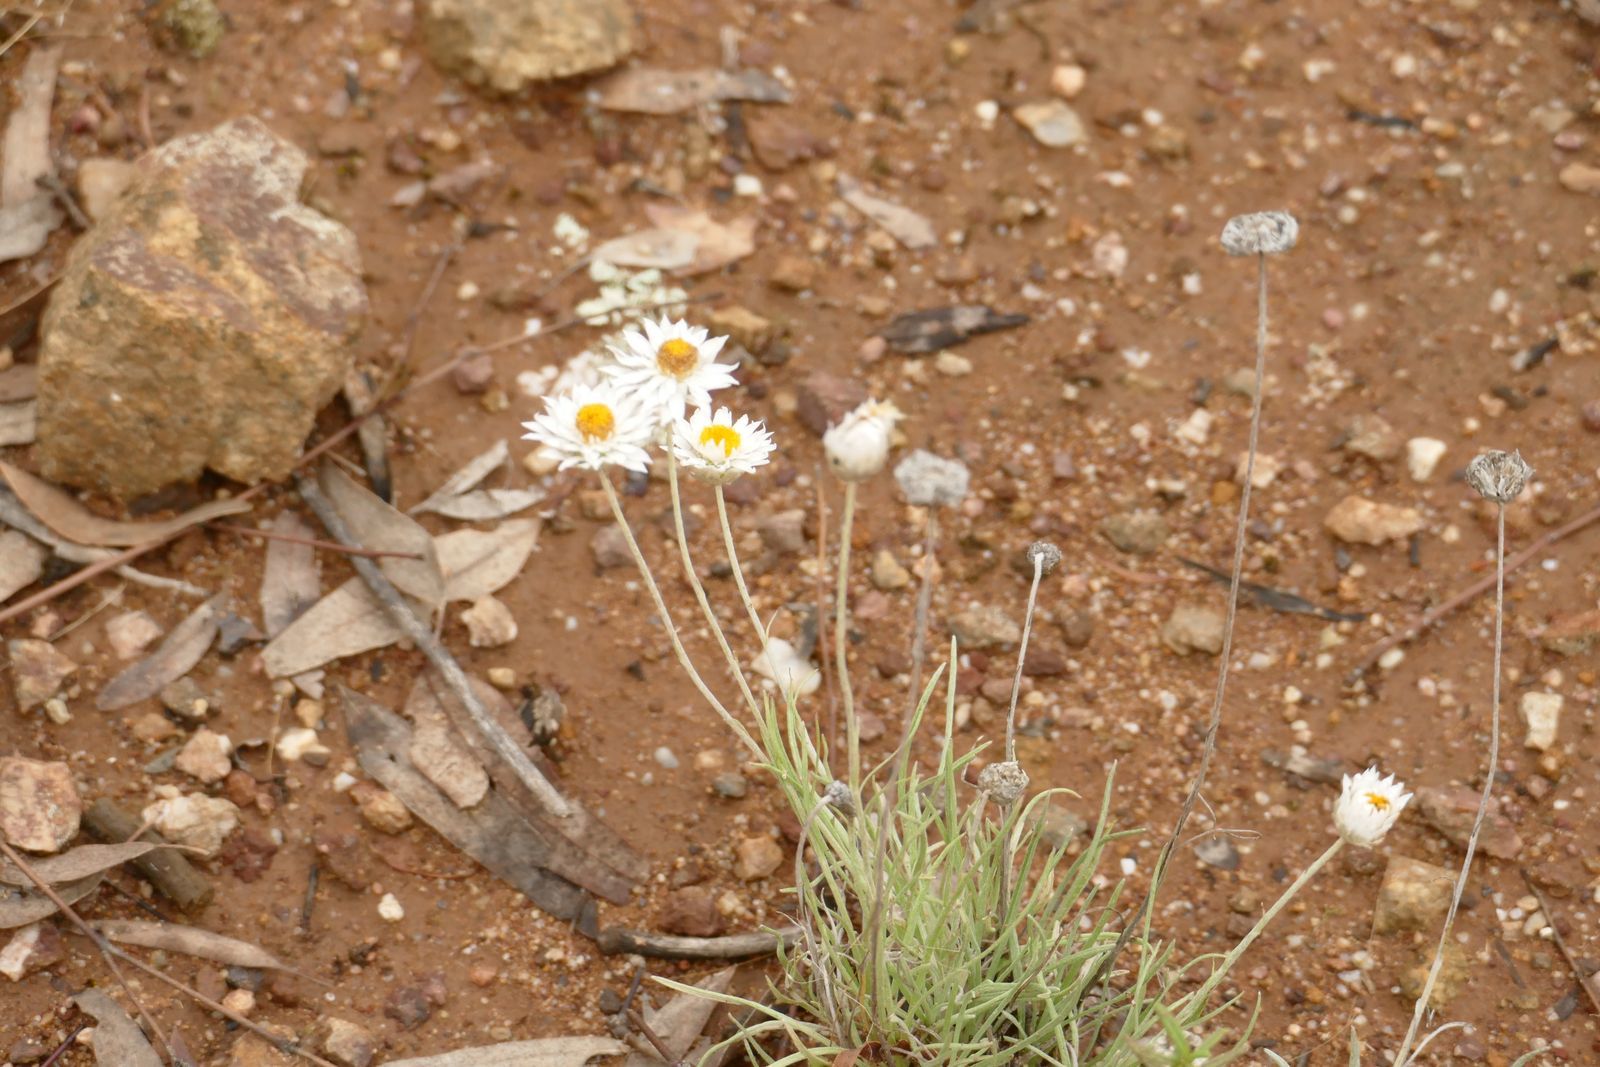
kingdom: Plantae
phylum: Tracheophyta
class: Magnoliopsida
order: Asterales
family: Asteraceae
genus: Leucochrysum
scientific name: Leucochrysum albicans
